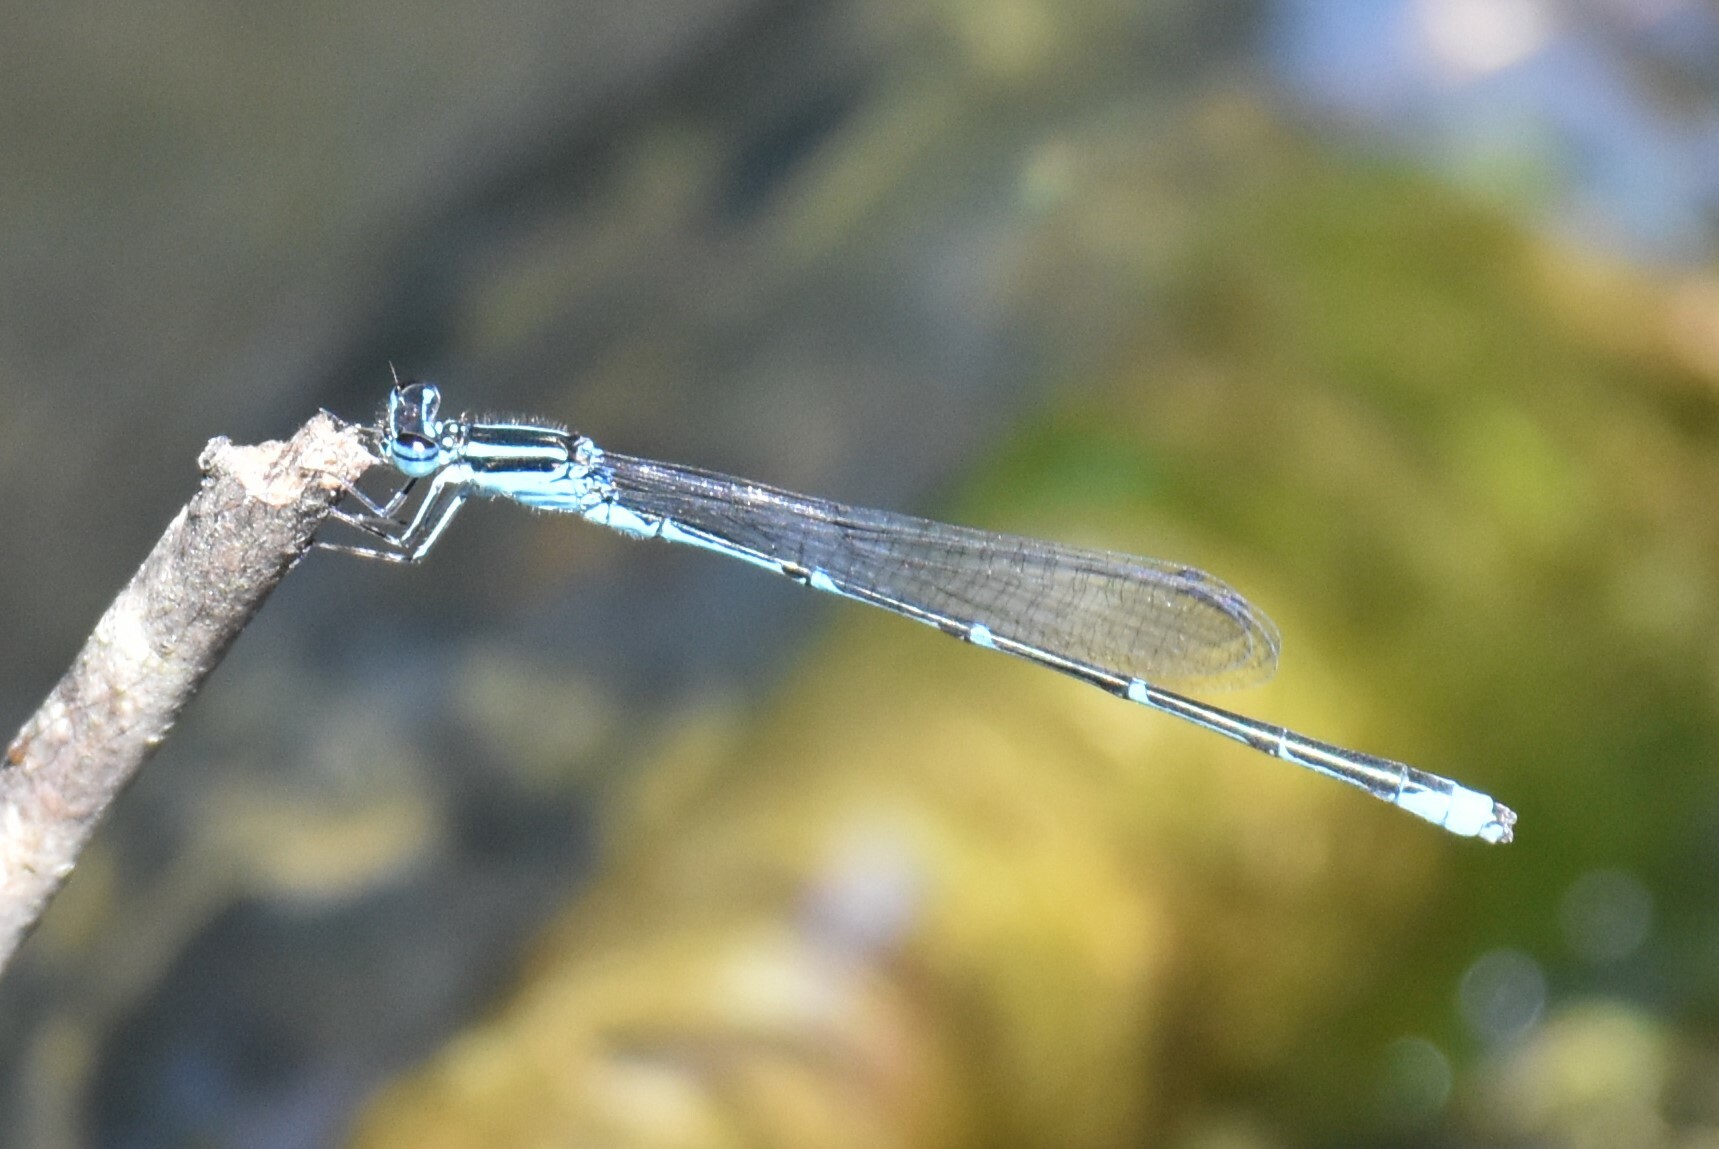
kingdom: Animalia
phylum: Arthropoda
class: Insecta
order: Odonata
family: Coenagrionidae
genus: Enallagma
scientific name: Enallagma exsulans
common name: Stream bluet
